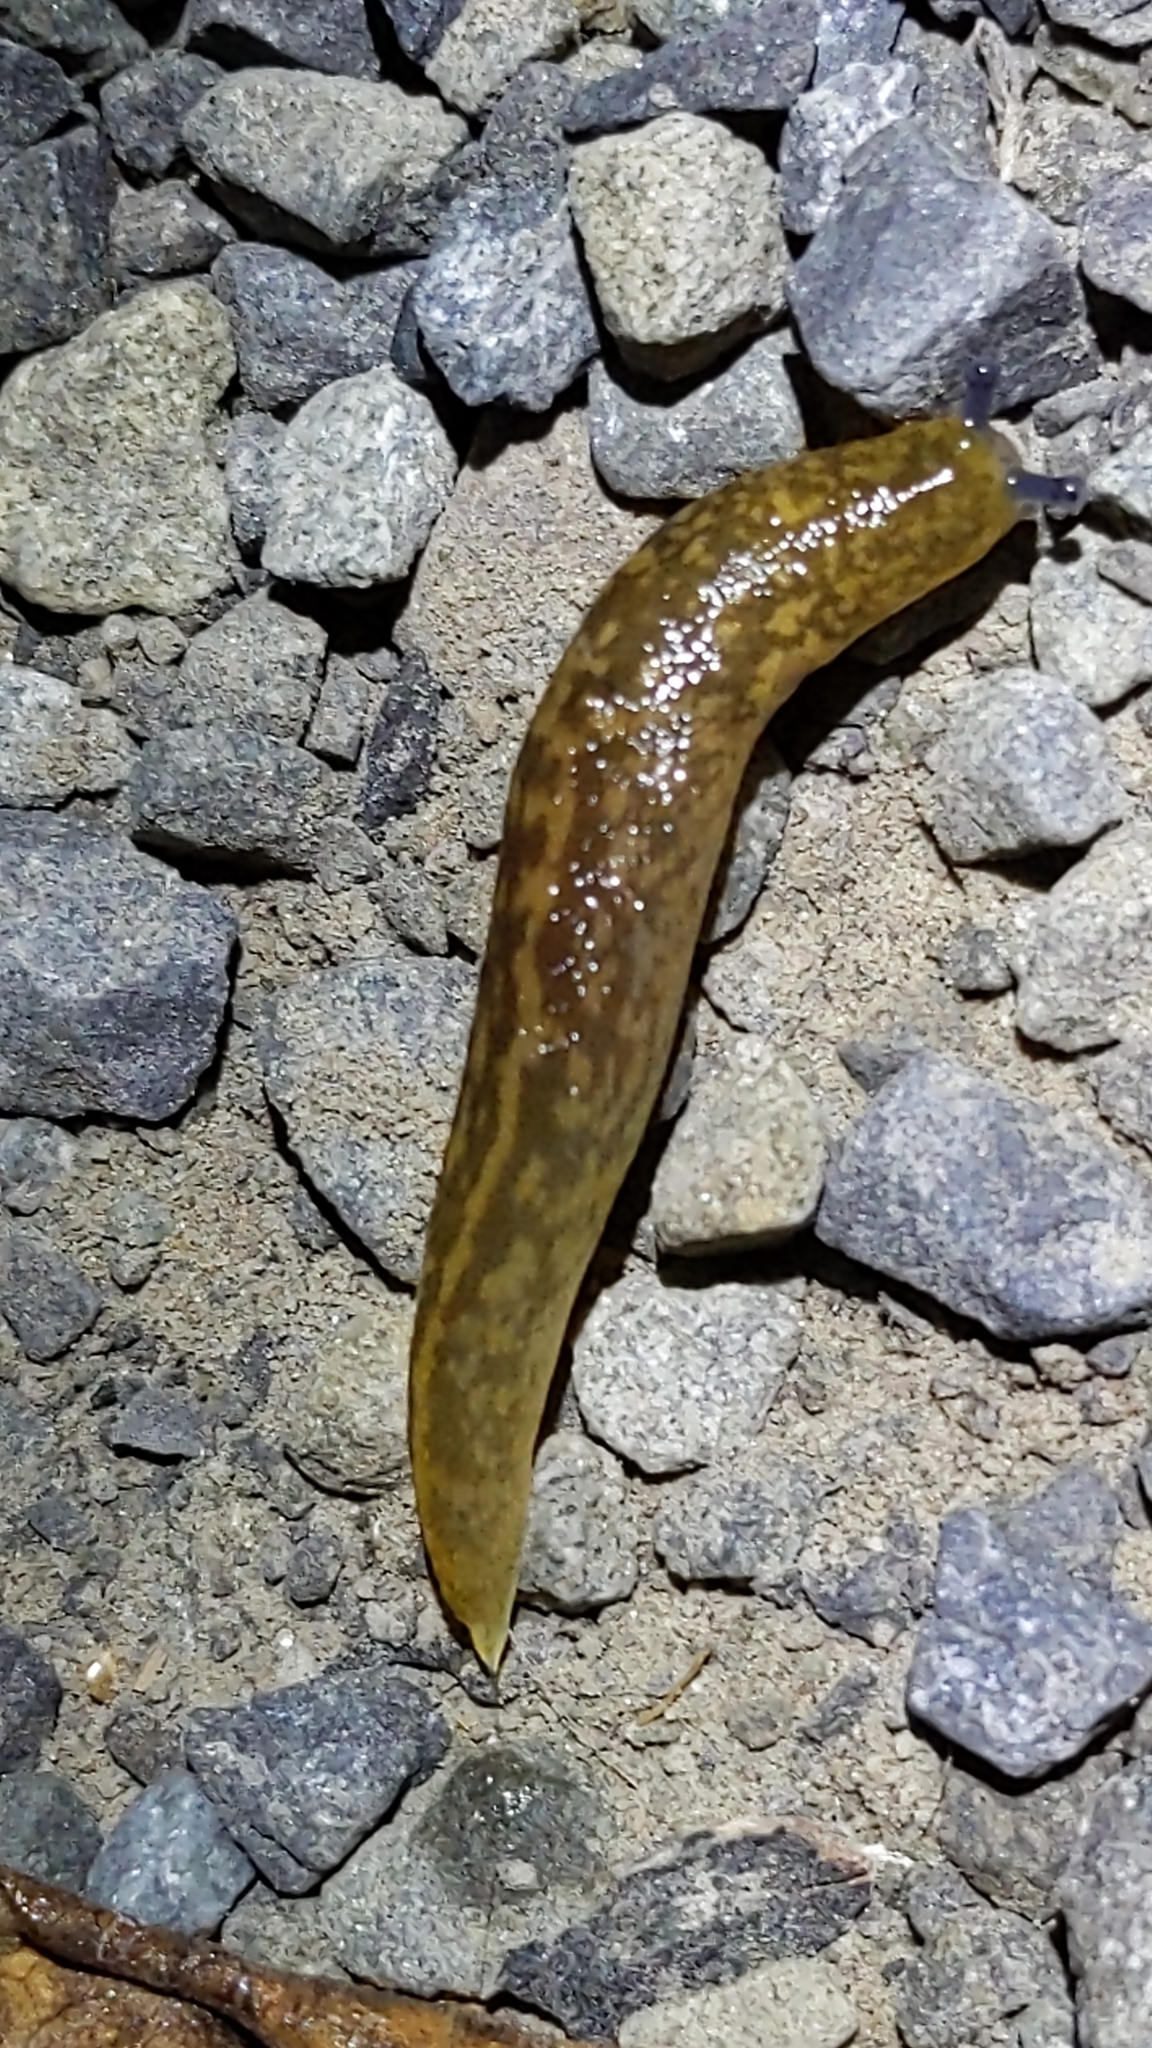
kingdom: Animalia
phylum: Mollusca
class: Gastropoda
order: Stylommatophora
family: Limacidae
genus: Limacus
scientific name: Limacus flavus
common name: Yellow gardenslug
